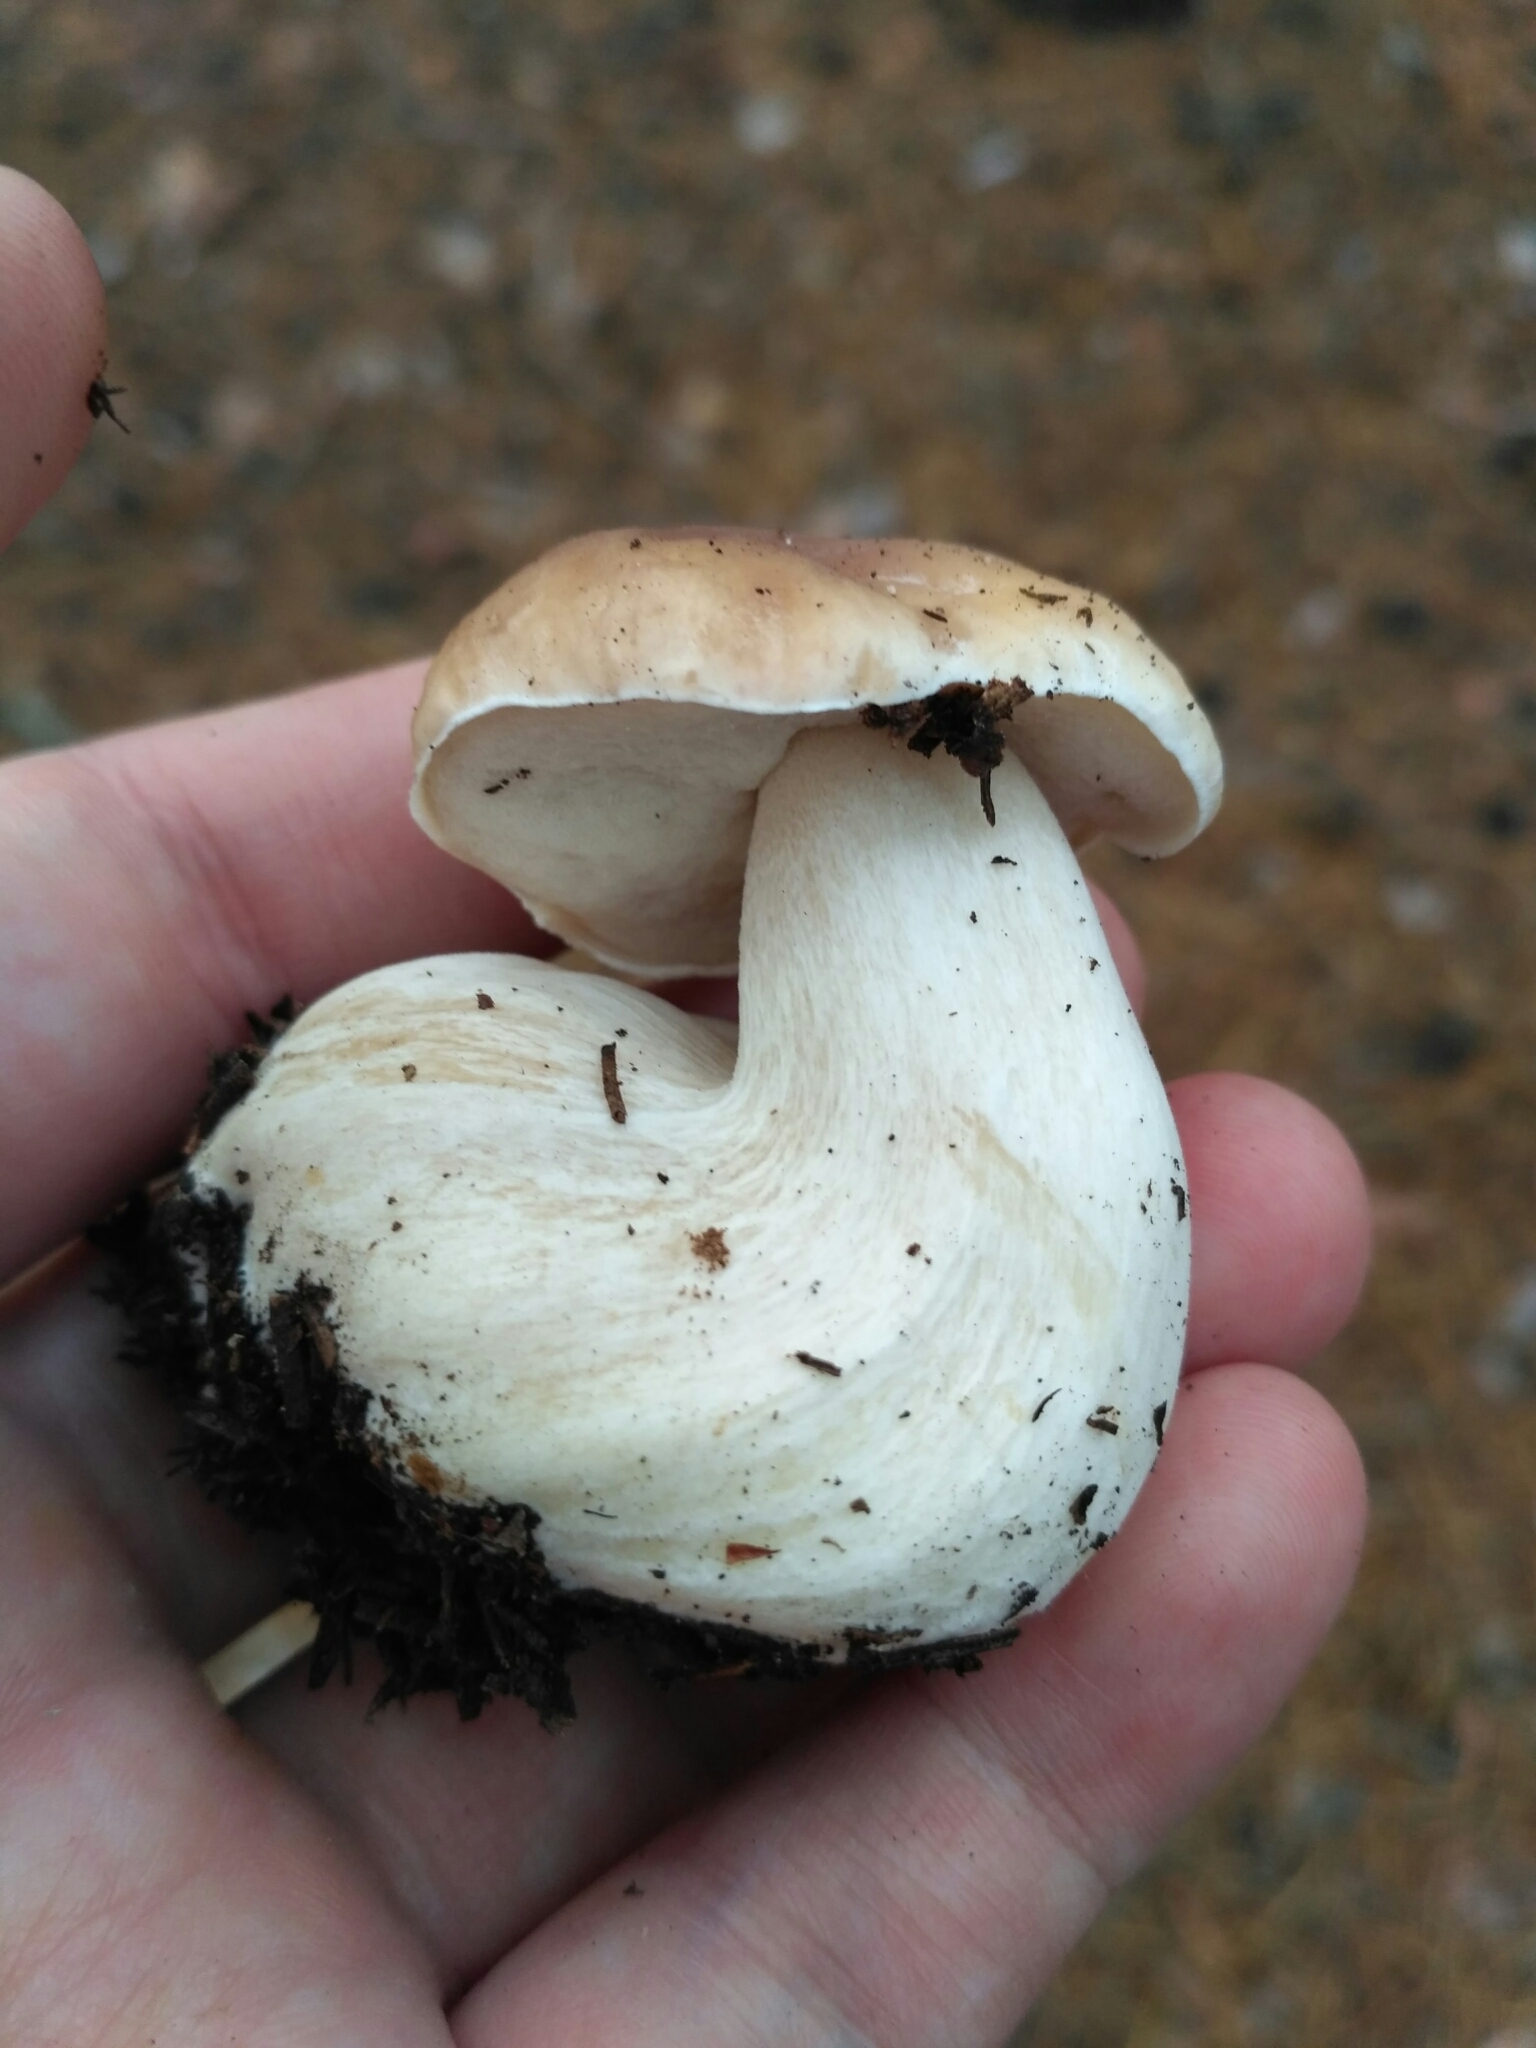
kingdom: Fungi
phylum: Basidiomycota
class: Agaricomycetes
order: Boletales
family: Boletaceae
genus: Boletus
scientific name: Boletus edulis
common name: Cep
